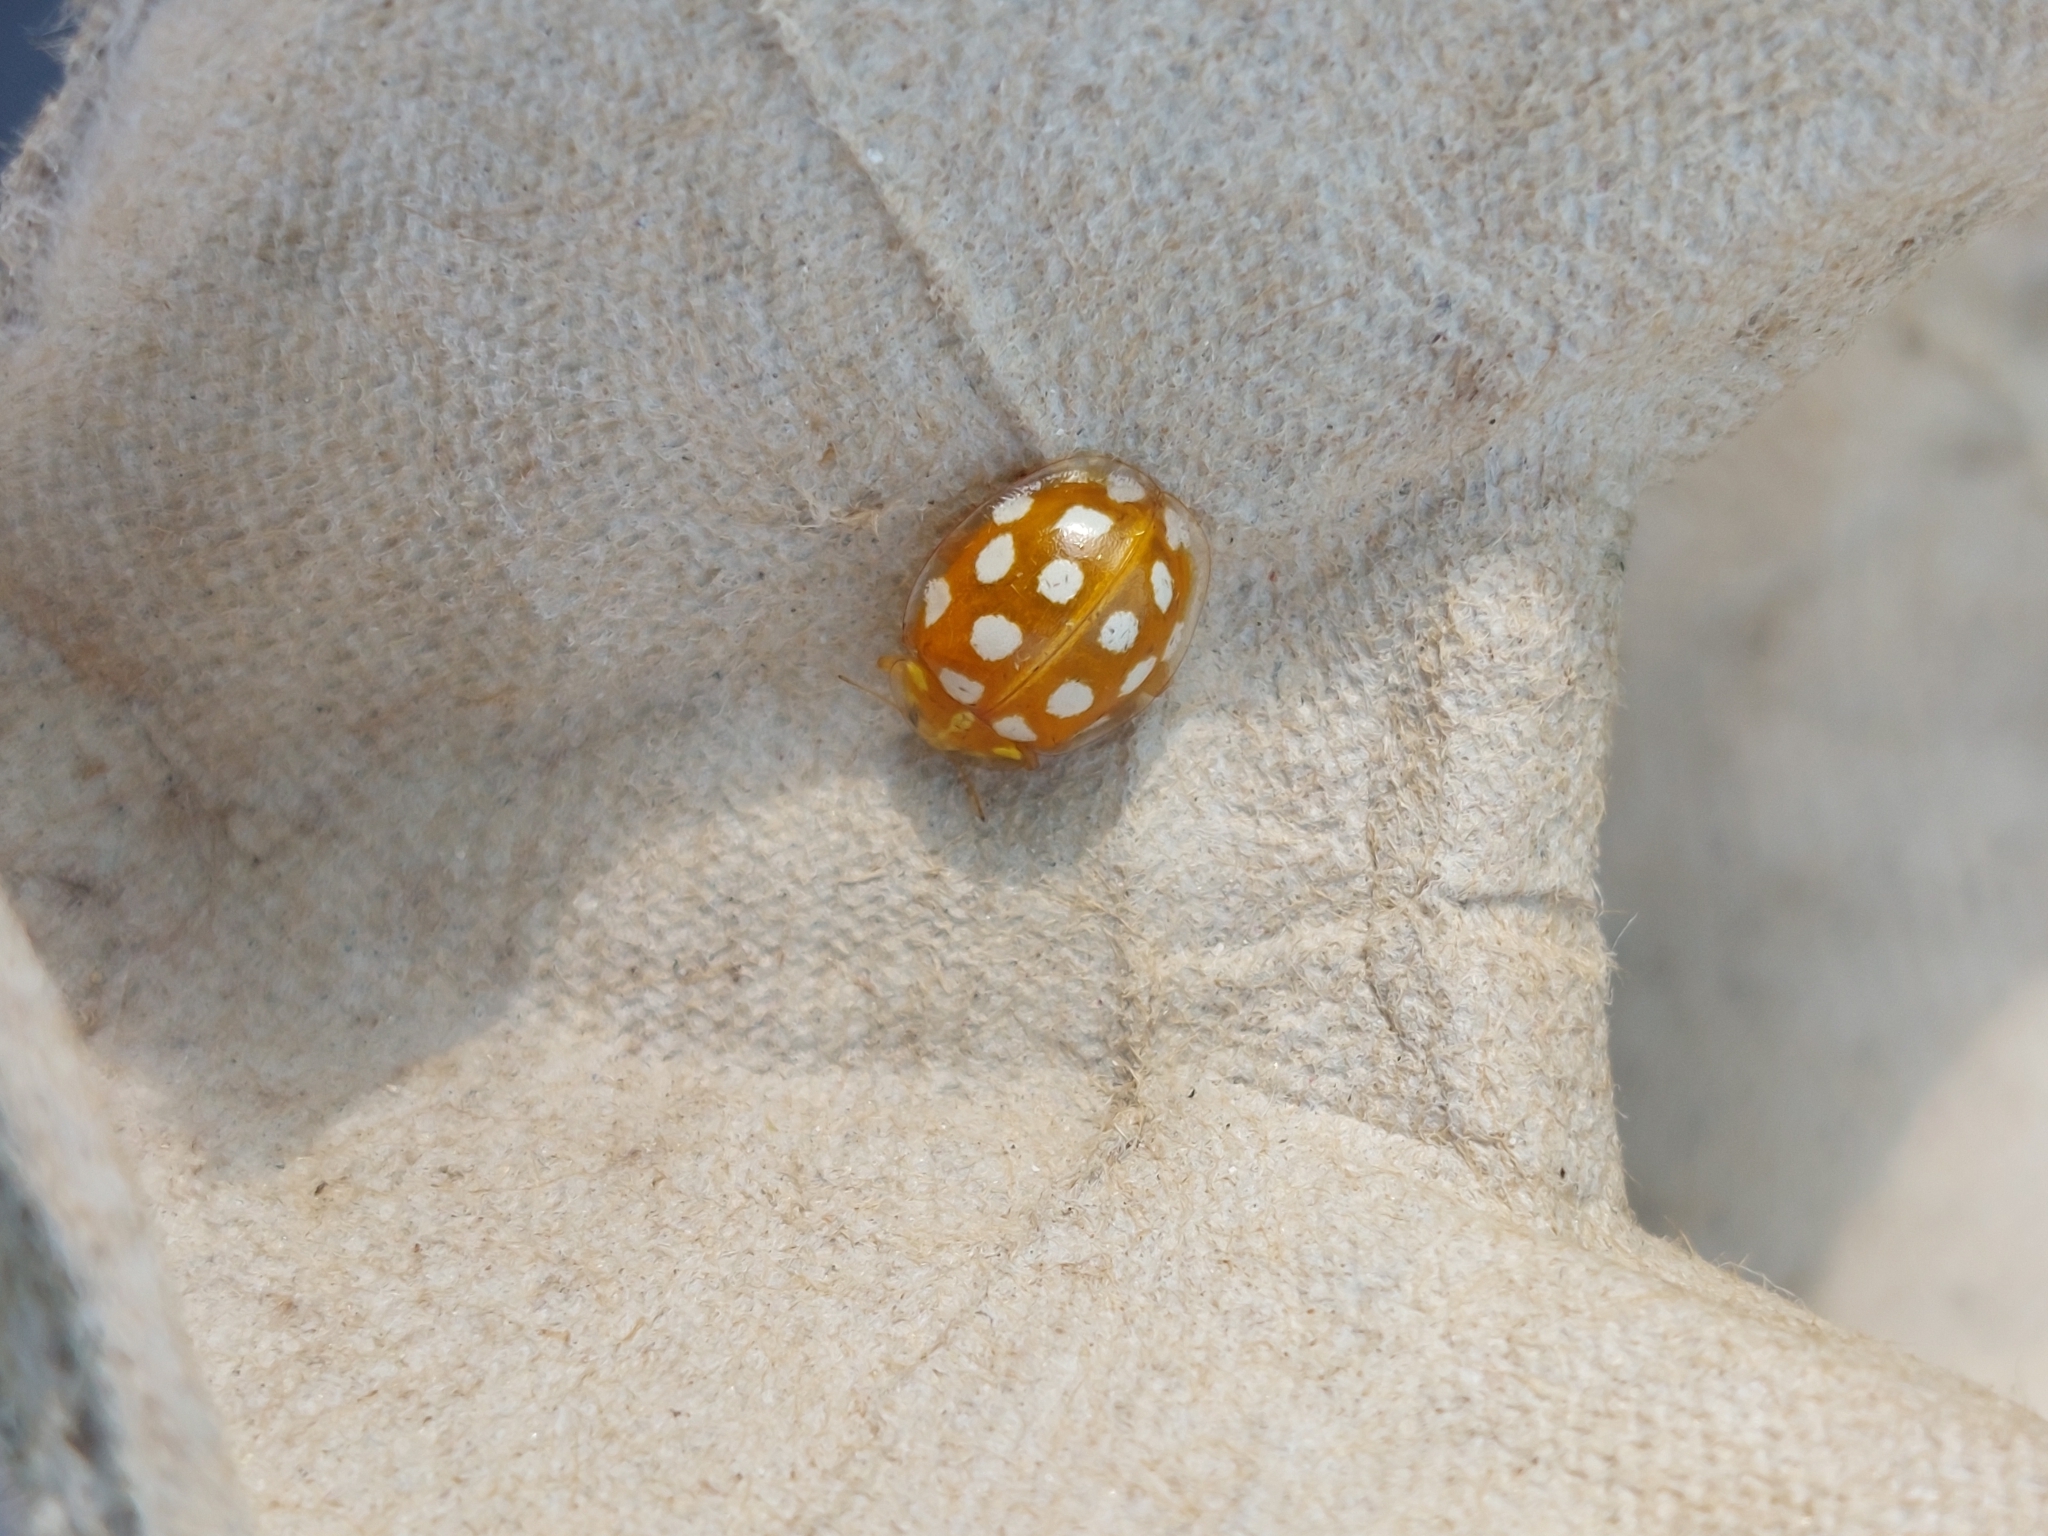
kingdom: Animalia
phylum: Arthropoda
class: Insecta
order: Coleoptera
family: Coccinellidae
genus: Halyzia
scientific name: Halyzia sedecimguttata
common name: Orange ladybird
